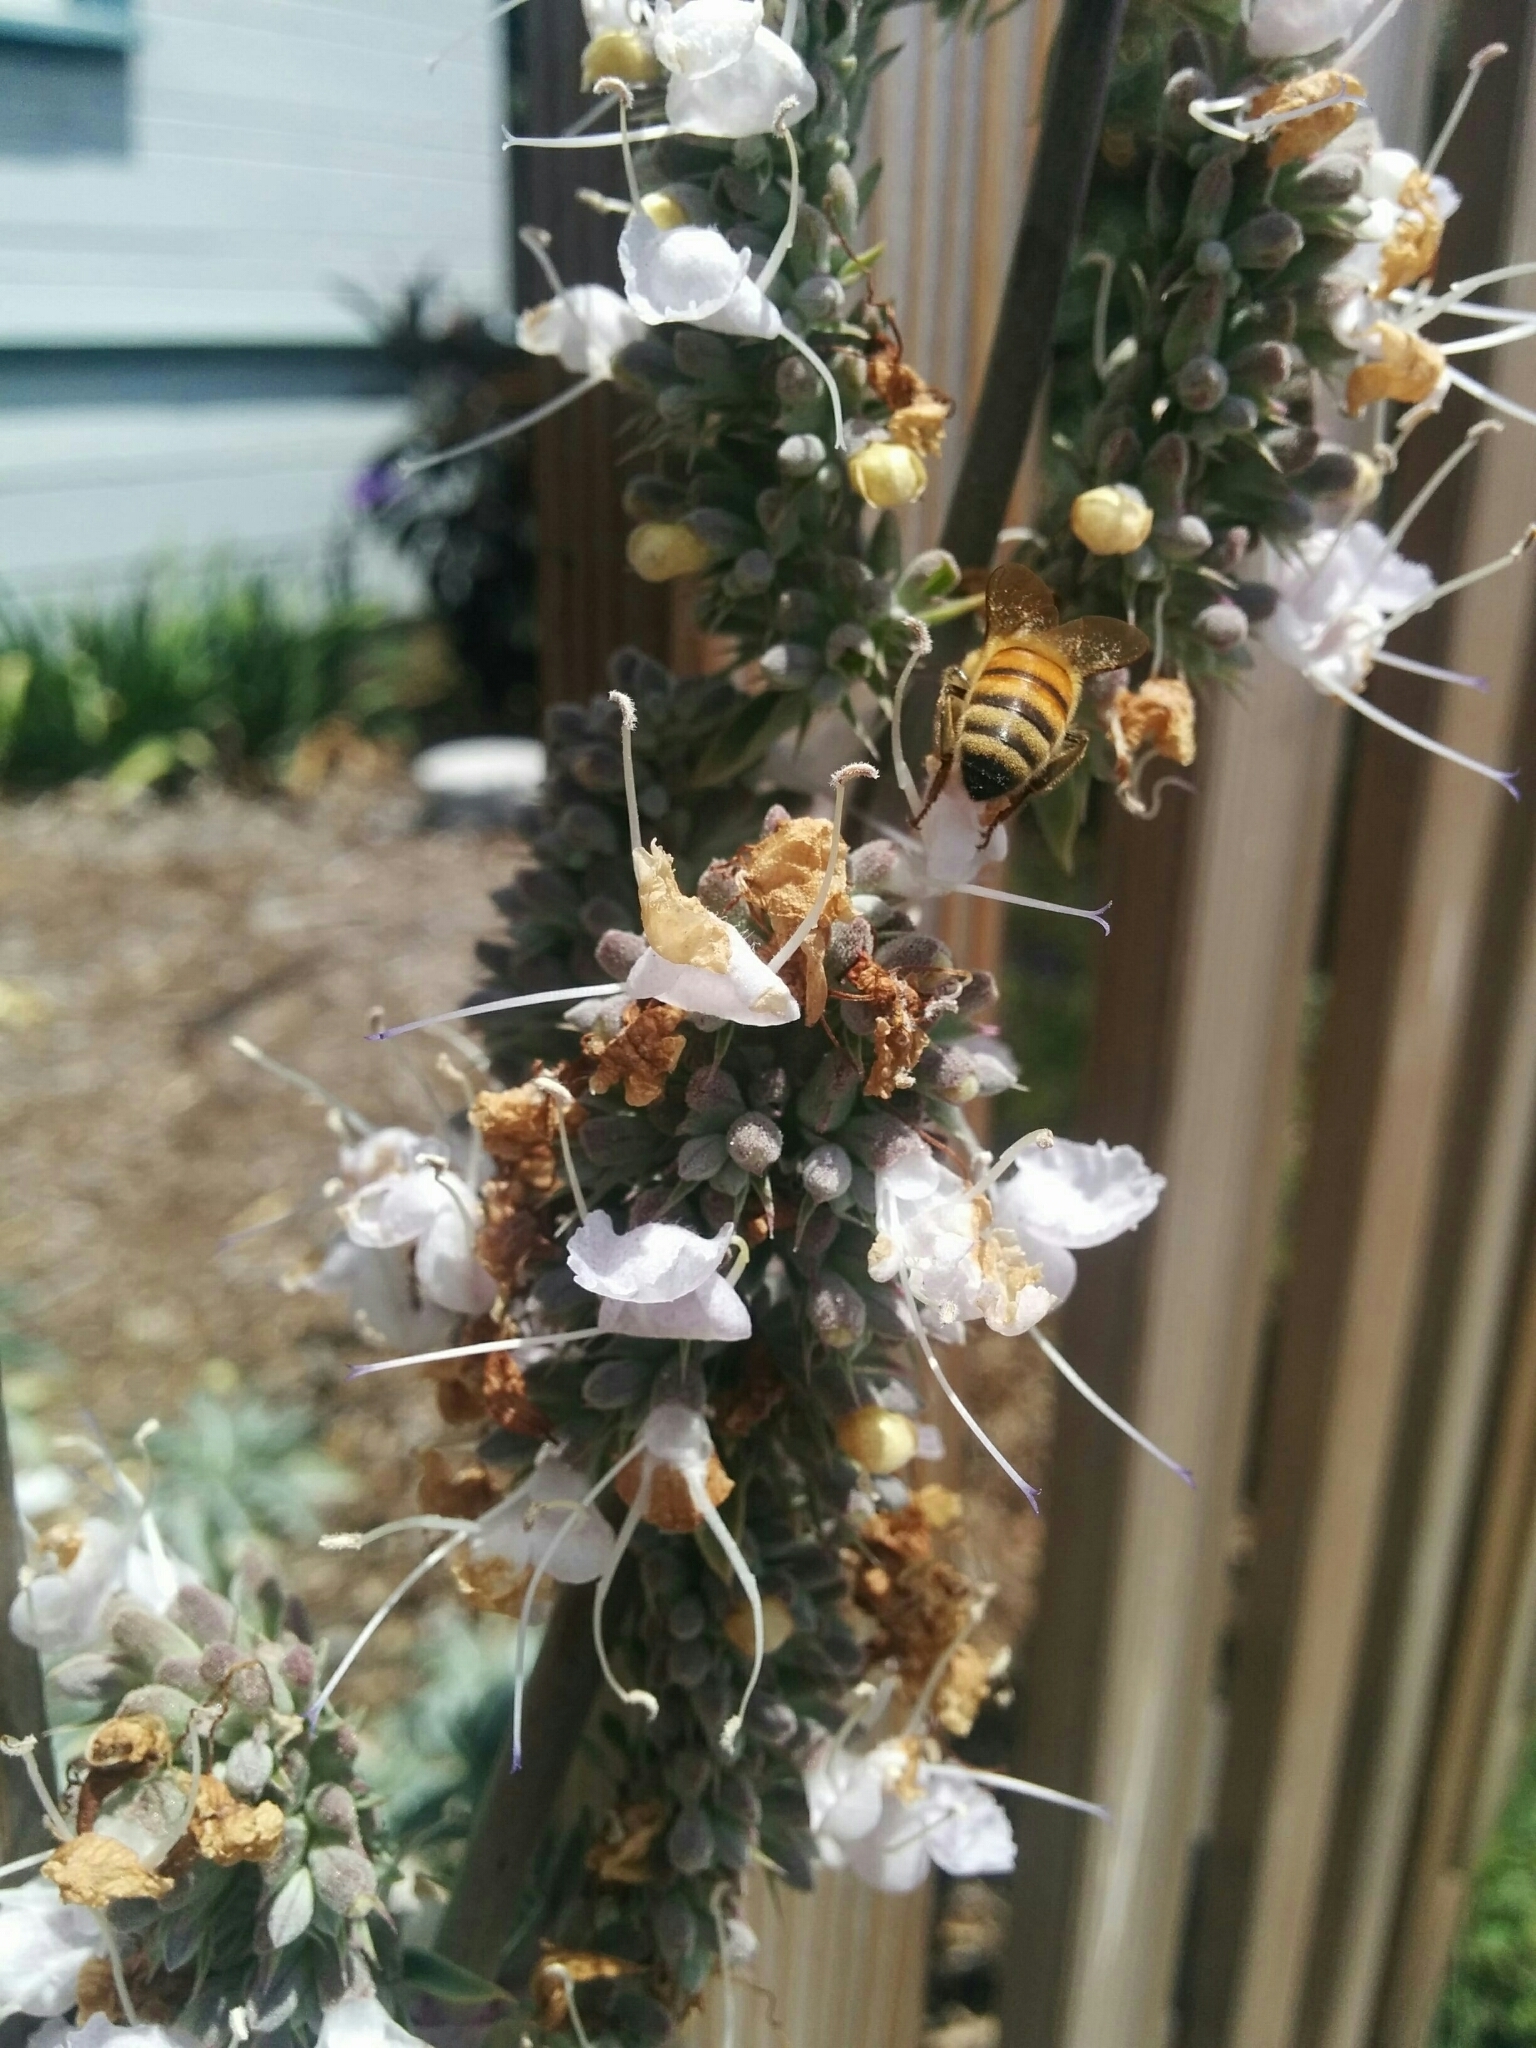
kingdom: Animalia
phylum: Arthropoda
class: Insecta
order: Hymenoptera
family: Apidae
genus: Apis
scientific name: Apis mellifera
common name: Honey bee
